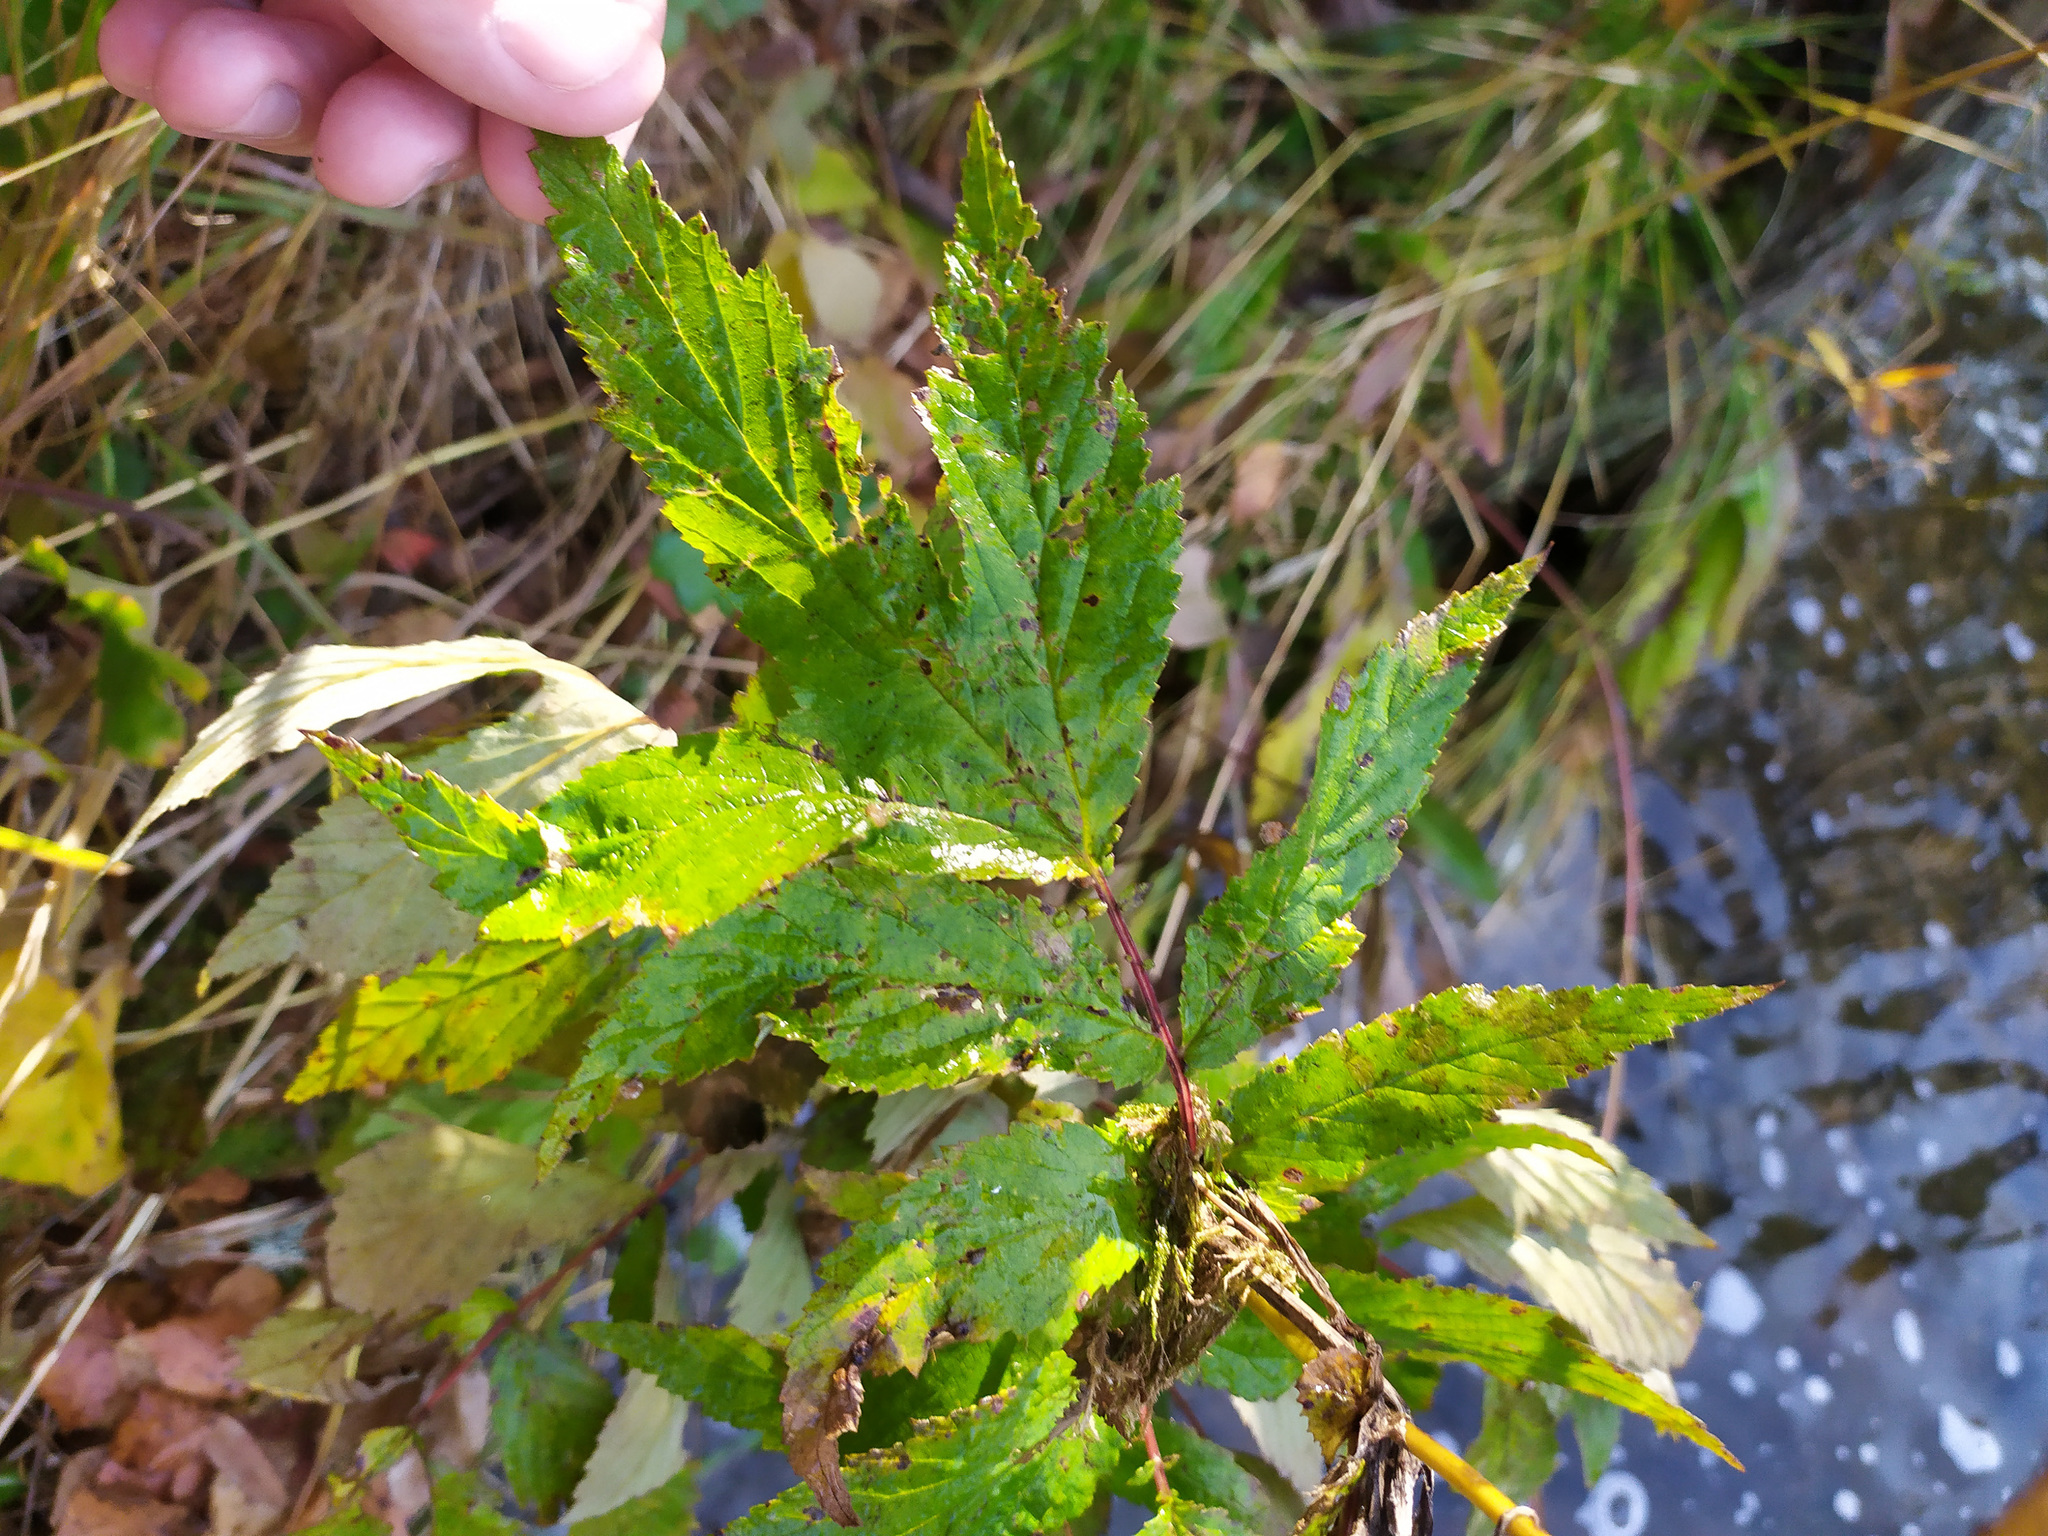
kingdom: Plantae
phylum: Tracheophyta
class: Magnoliopsida
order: Rosales
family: Rosaceae
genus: Filipendula
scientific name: Filipendula ulmaria
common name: Meadowsweet
